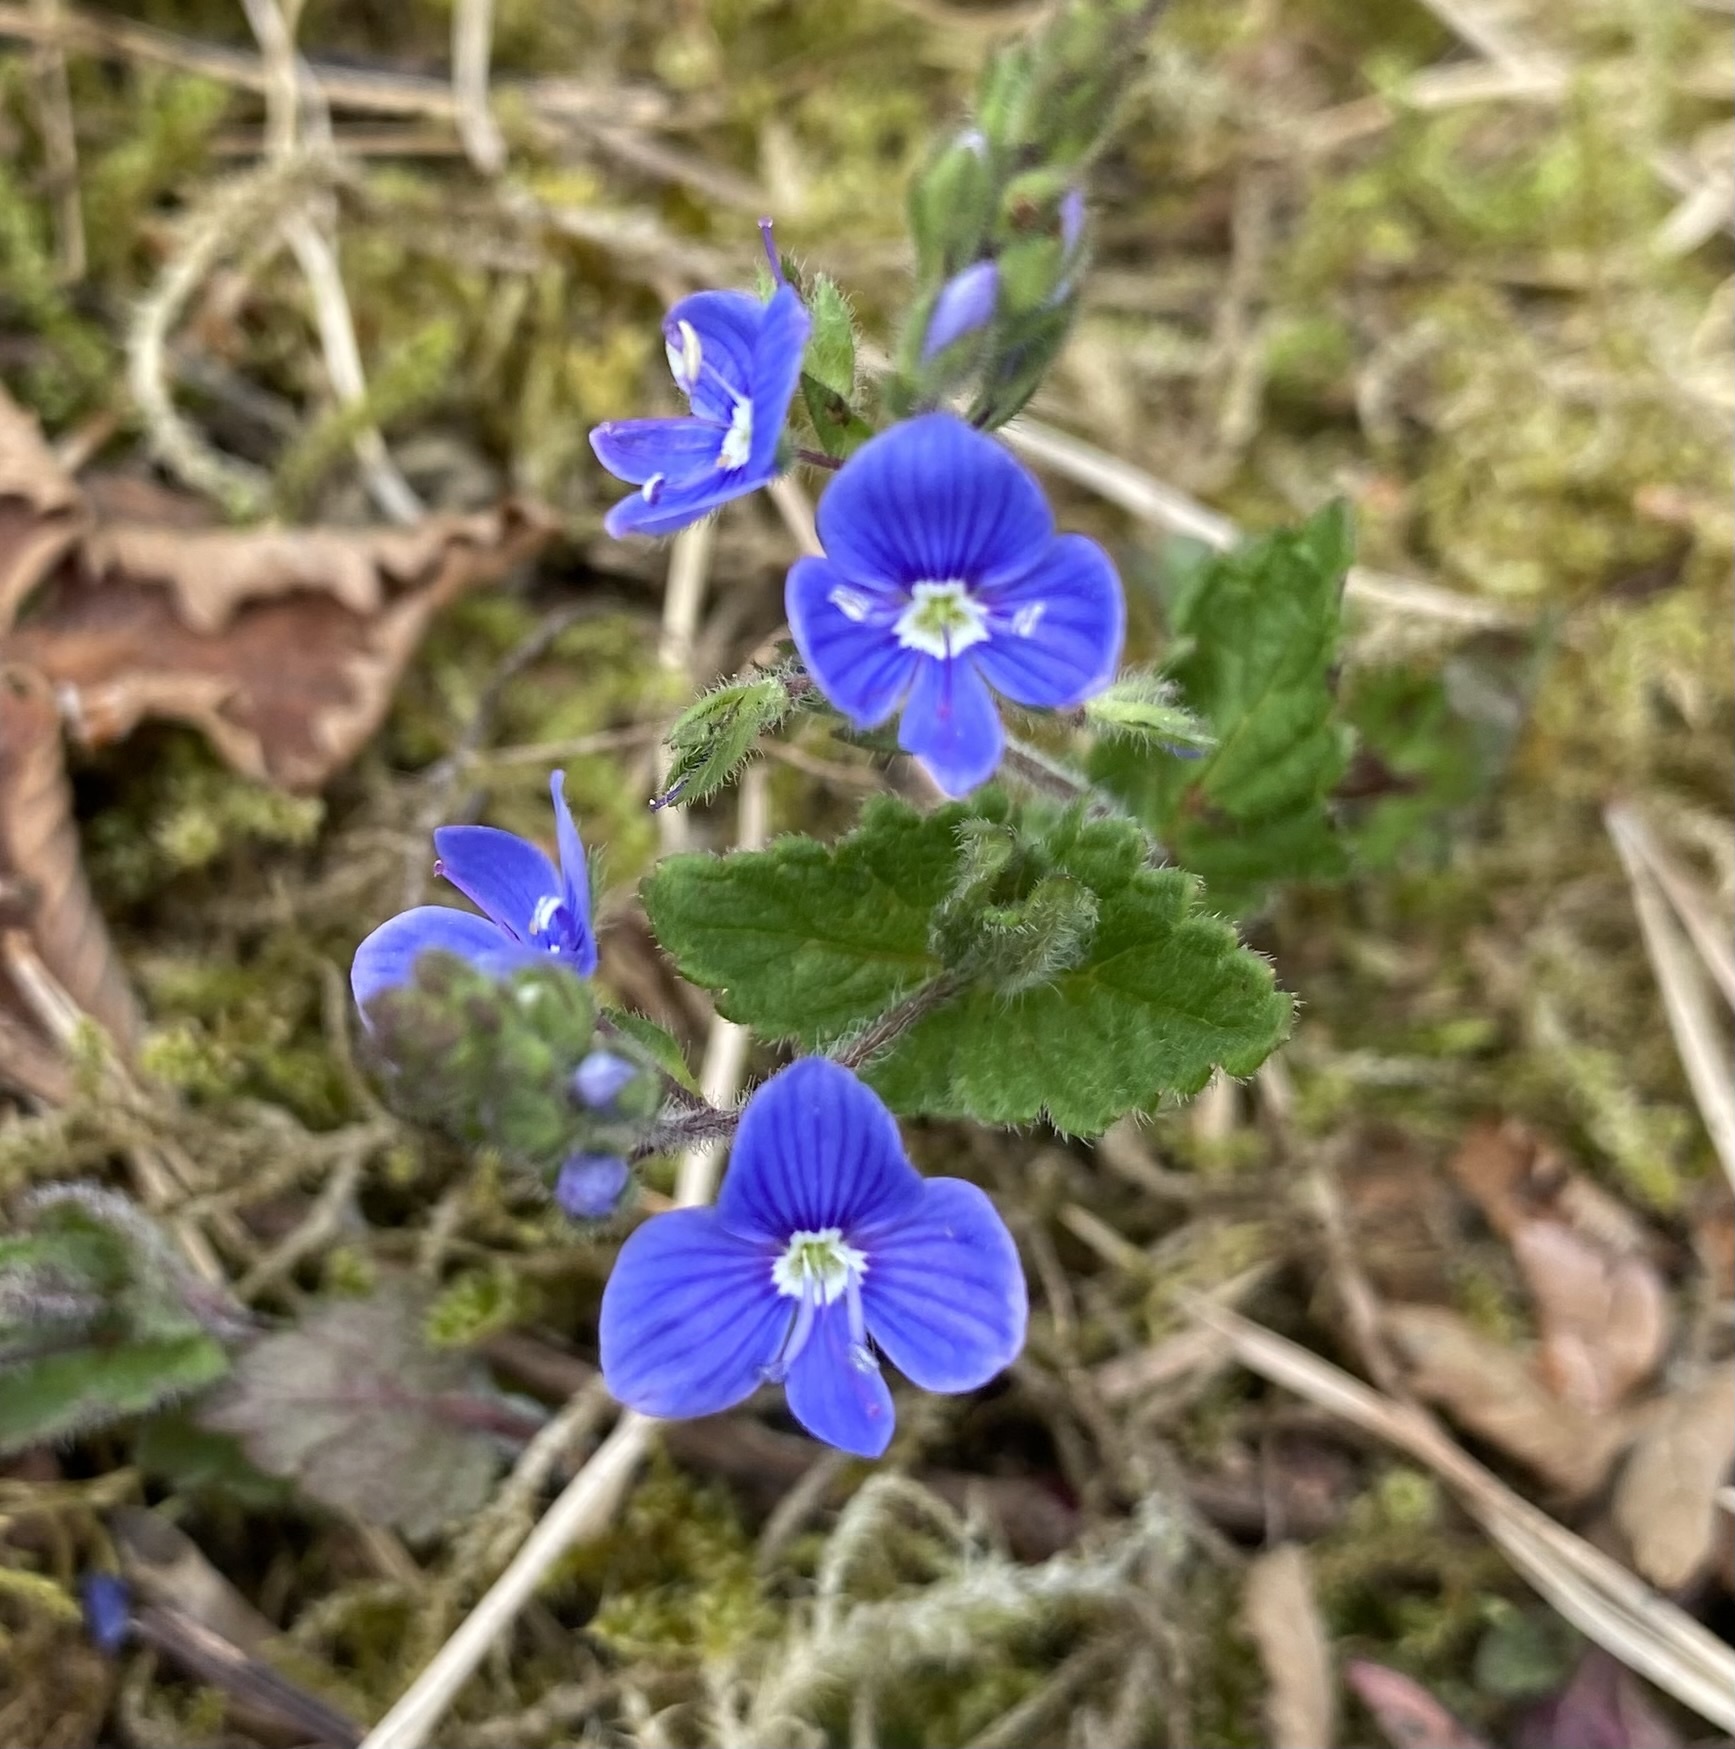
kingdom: Plantae
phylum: Tracheophyta
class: Magnoliopsida
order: Lamiales
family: Plantaginaceae
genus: Veronica
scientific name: Veronica chamaedrys
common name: Germander speedwell
